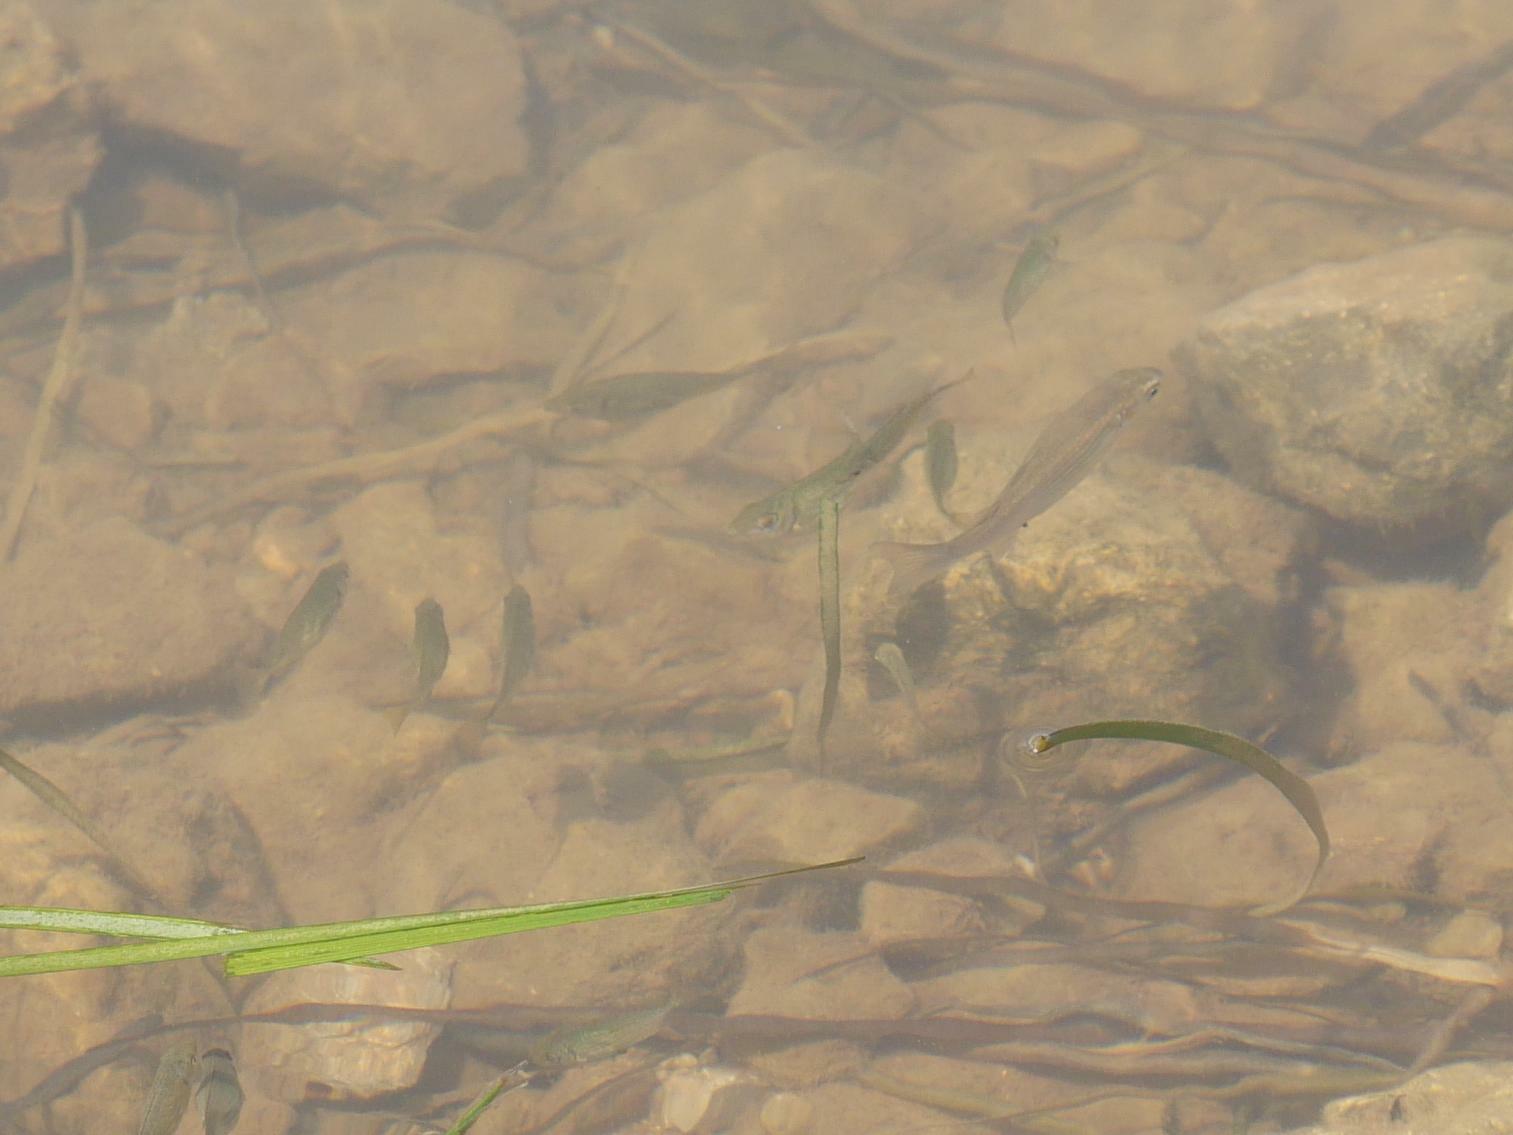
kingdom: Animalia
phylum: Chordata
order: Perciformes
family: Siganidae
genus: Siganus
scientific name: Siganus
